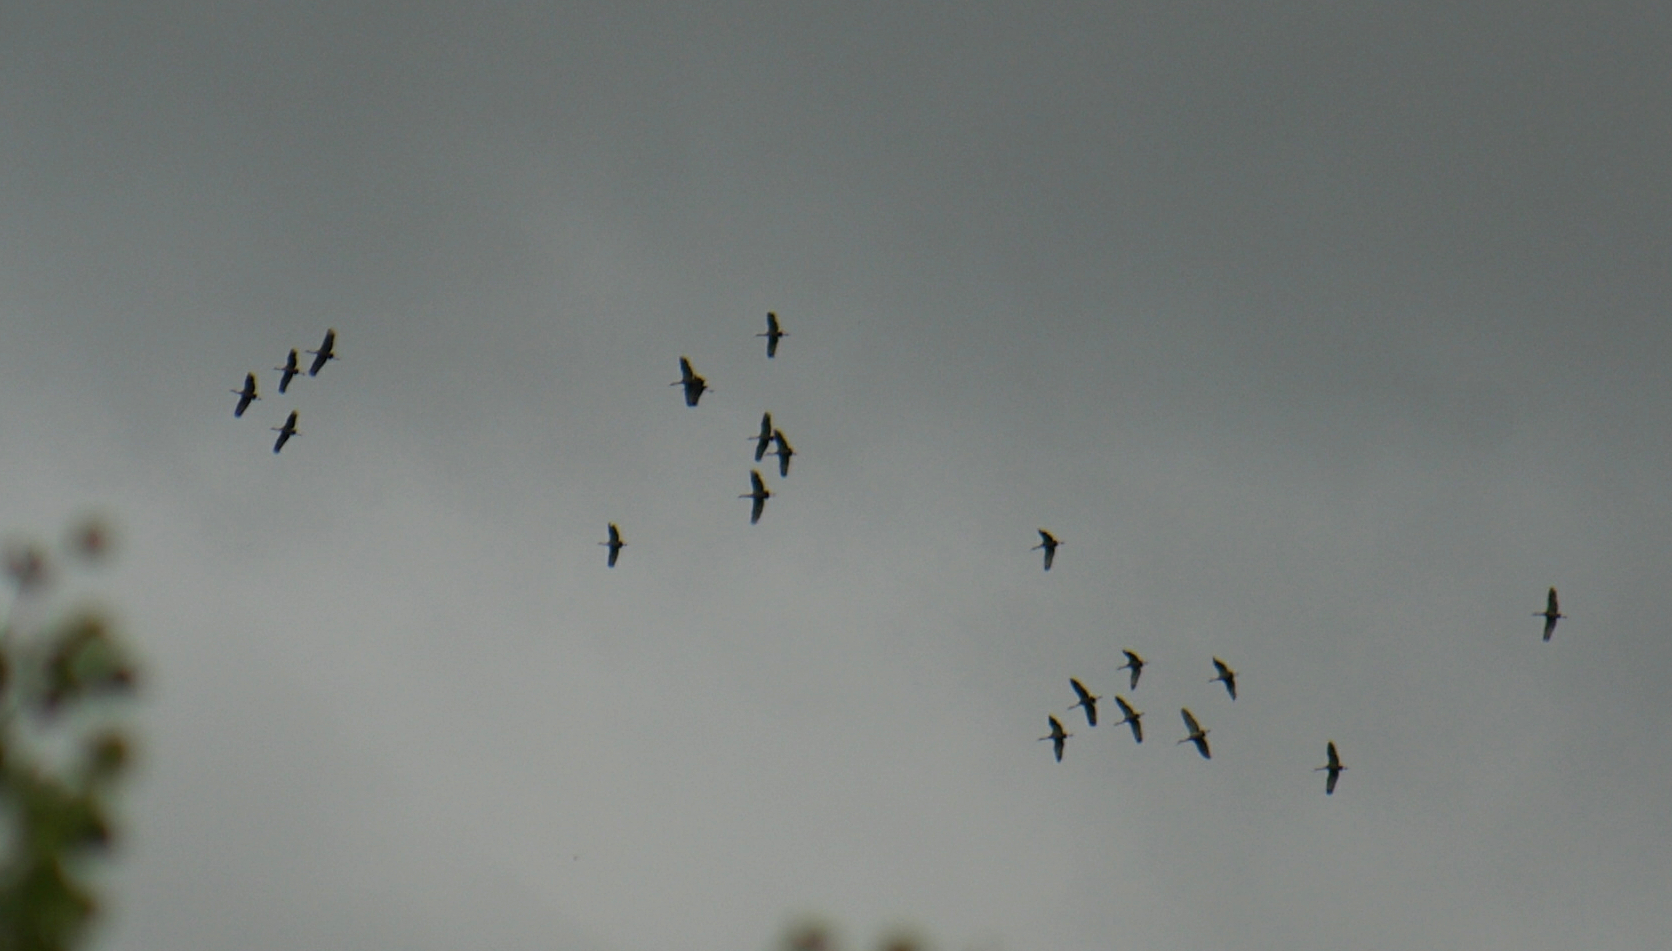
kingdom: Animalia
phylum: Chordata
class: Aves
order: Gruiformes
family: Gruidae
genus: Grus
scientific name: Grus canadensis
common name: Sandhill crane
